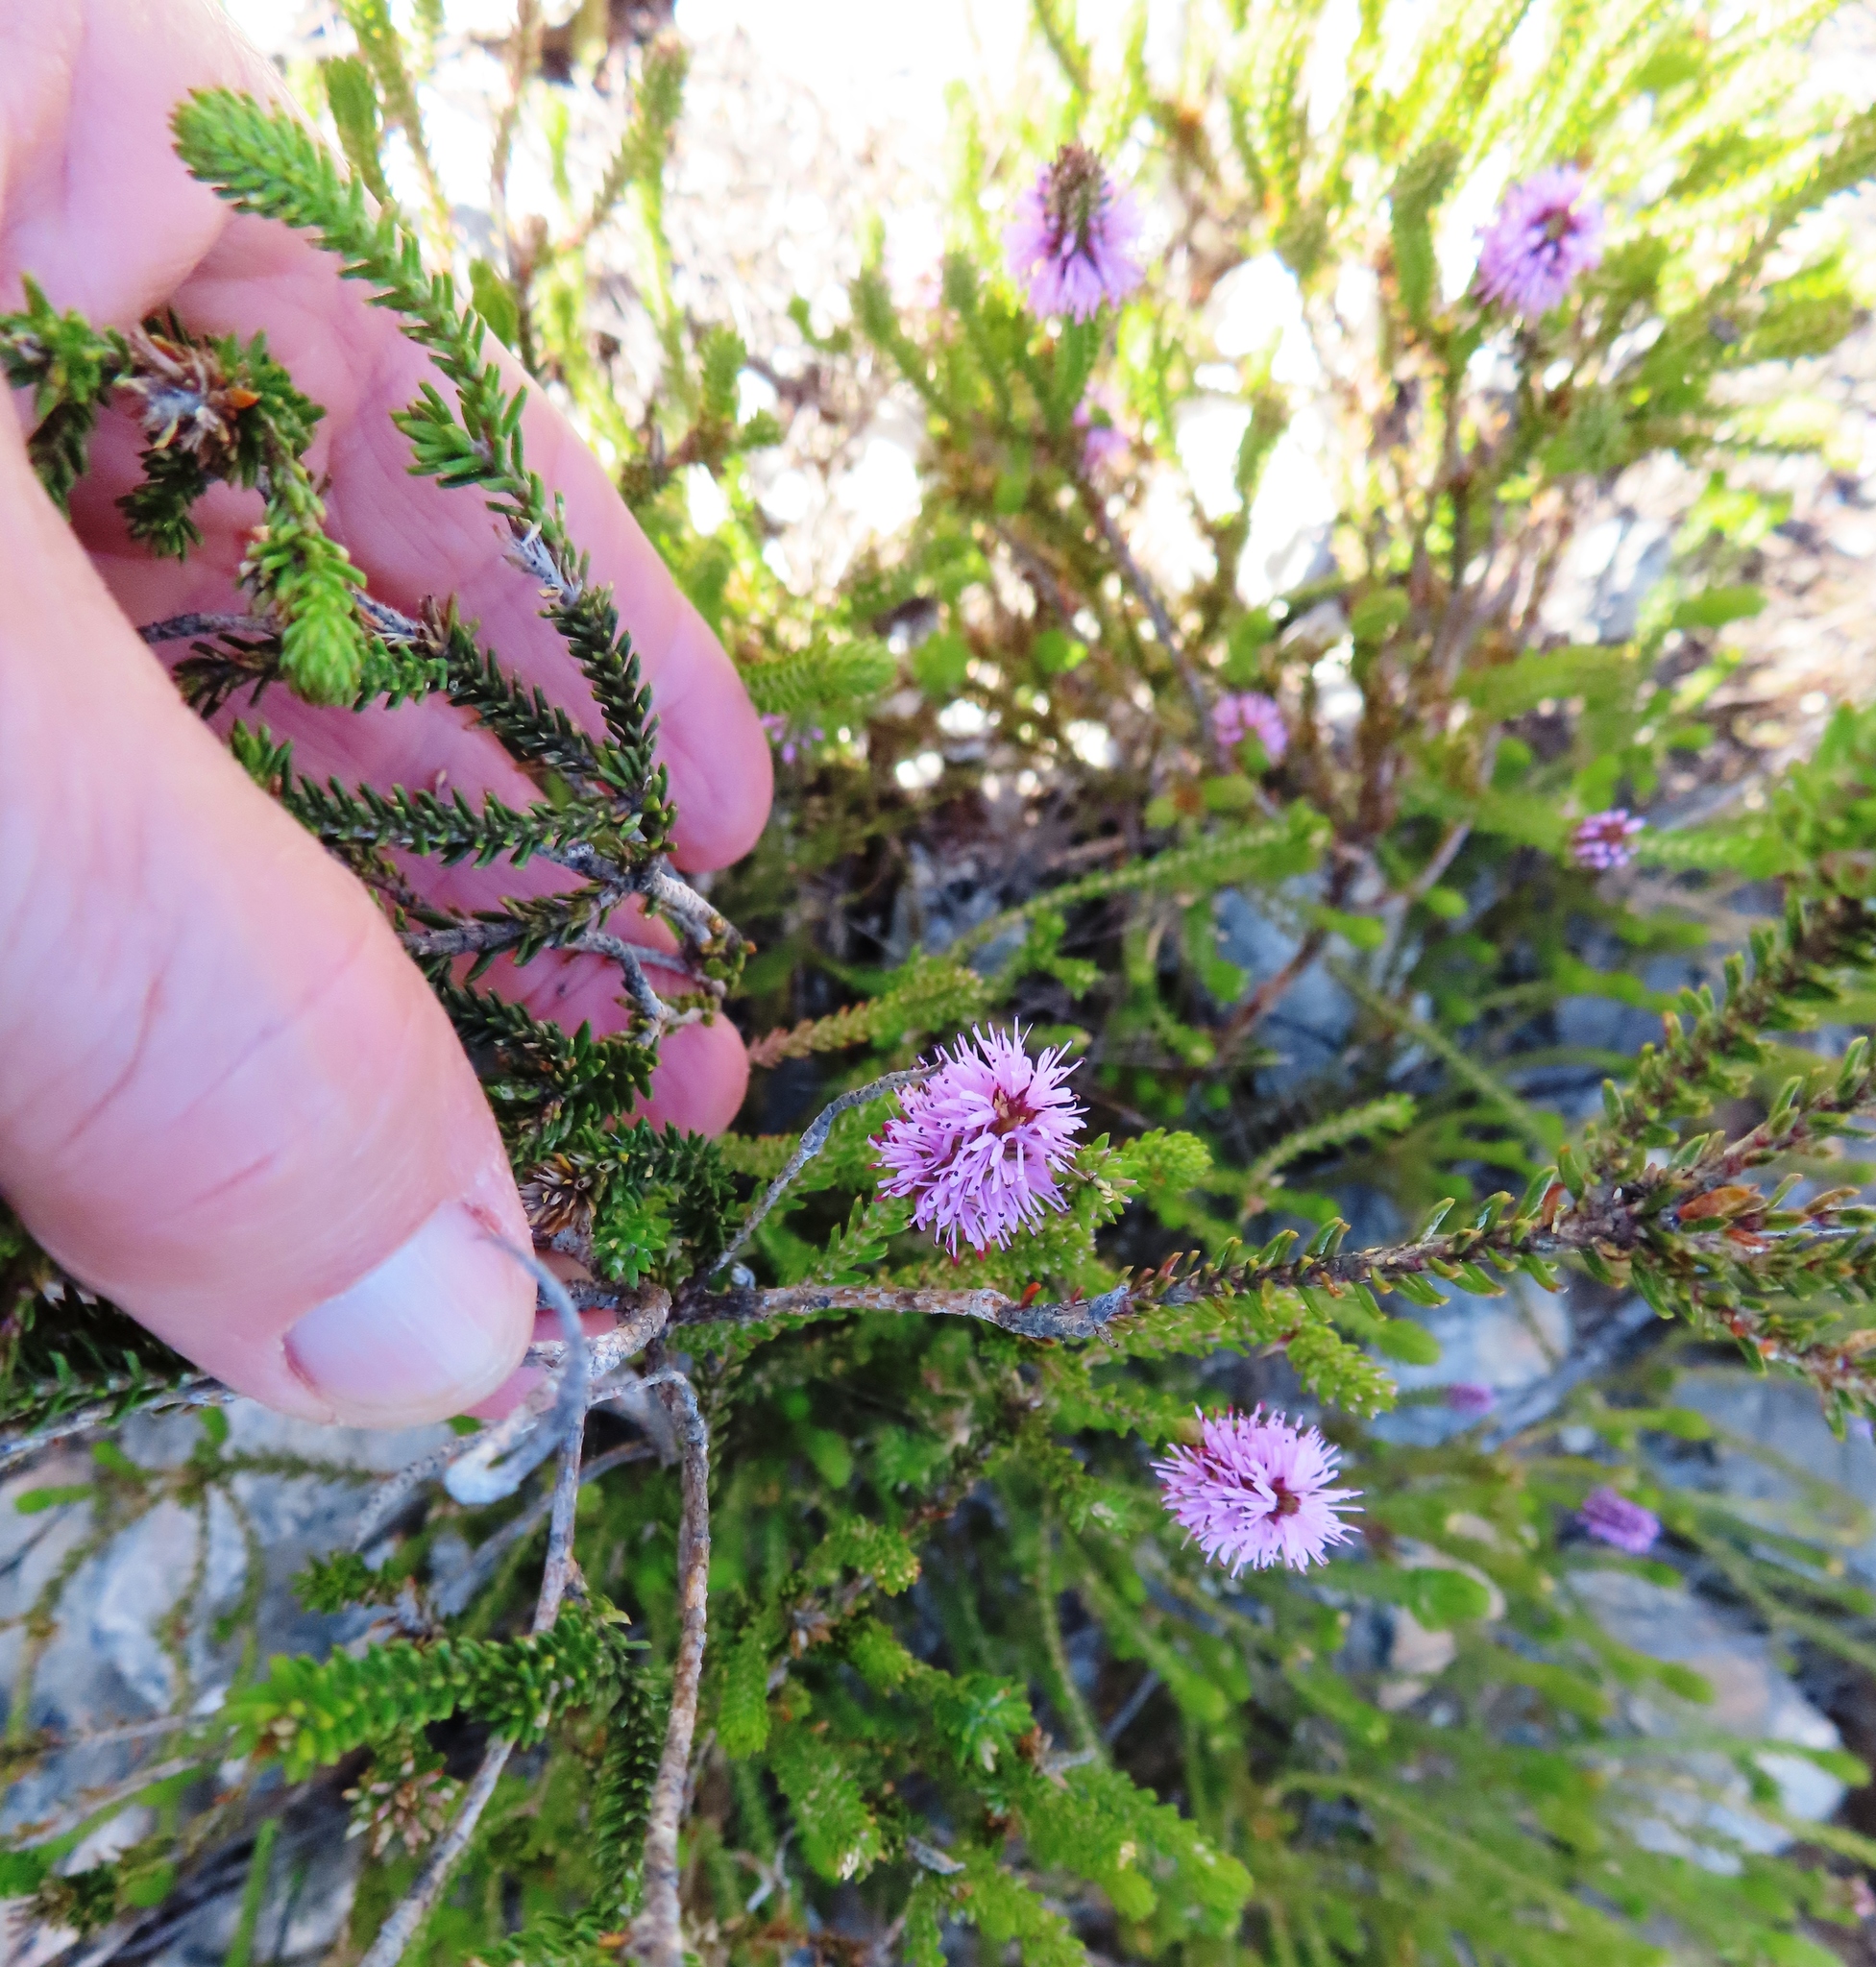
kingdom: Plantae
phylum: Tracheophyta
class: Magnoliopsida
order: Lamiales
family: Stilbaceae
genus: Stilbe
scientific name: Stilbe ericoides
